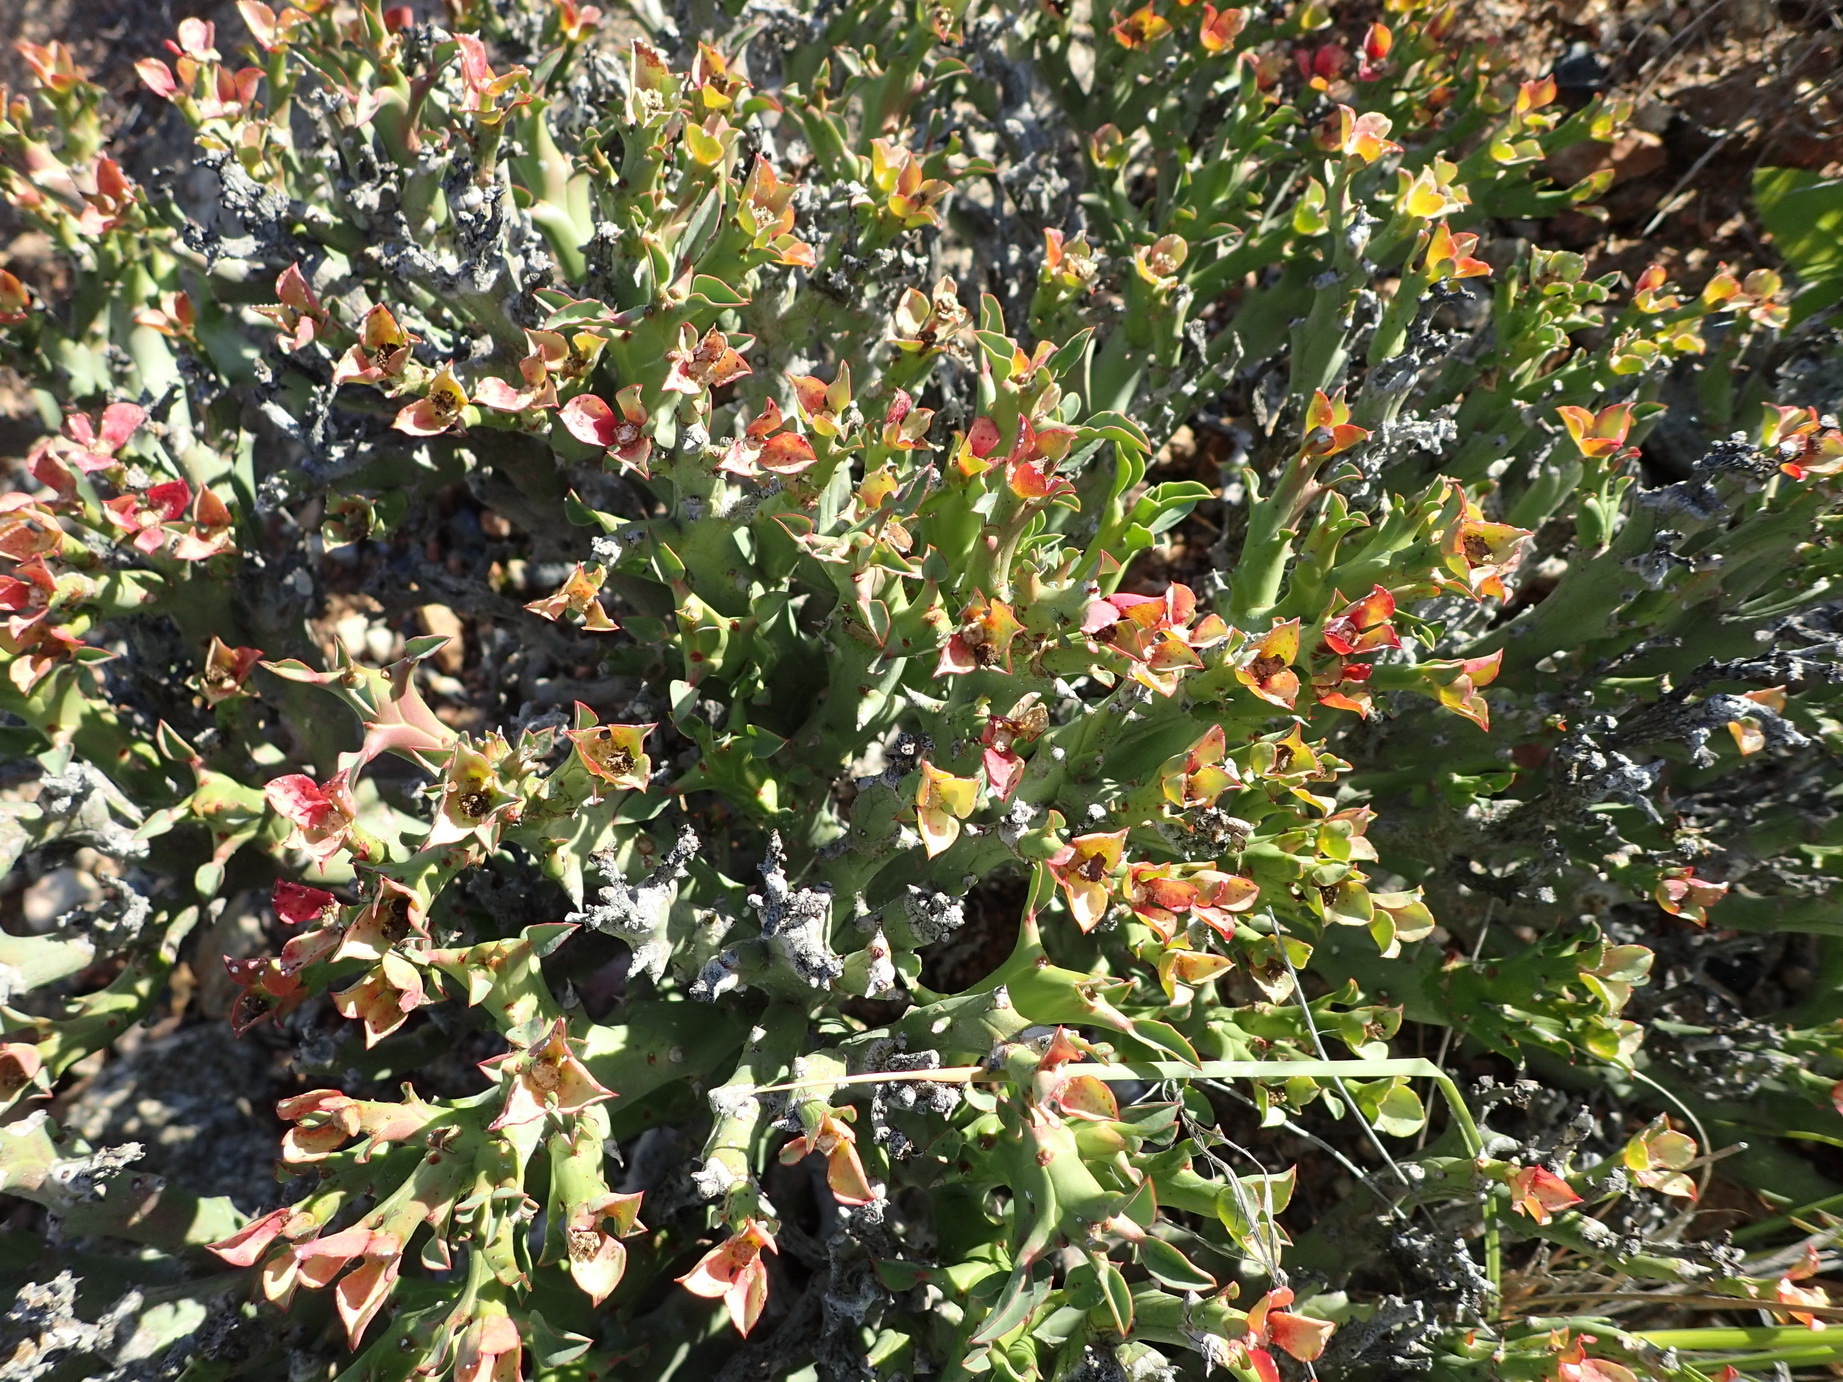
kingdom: Plantae
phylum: Tracheophyta
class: Magnoliopsida
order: Malpighiales
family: Euphorbiaceae
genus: Euphorbia
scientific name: Euphorbia hamata
